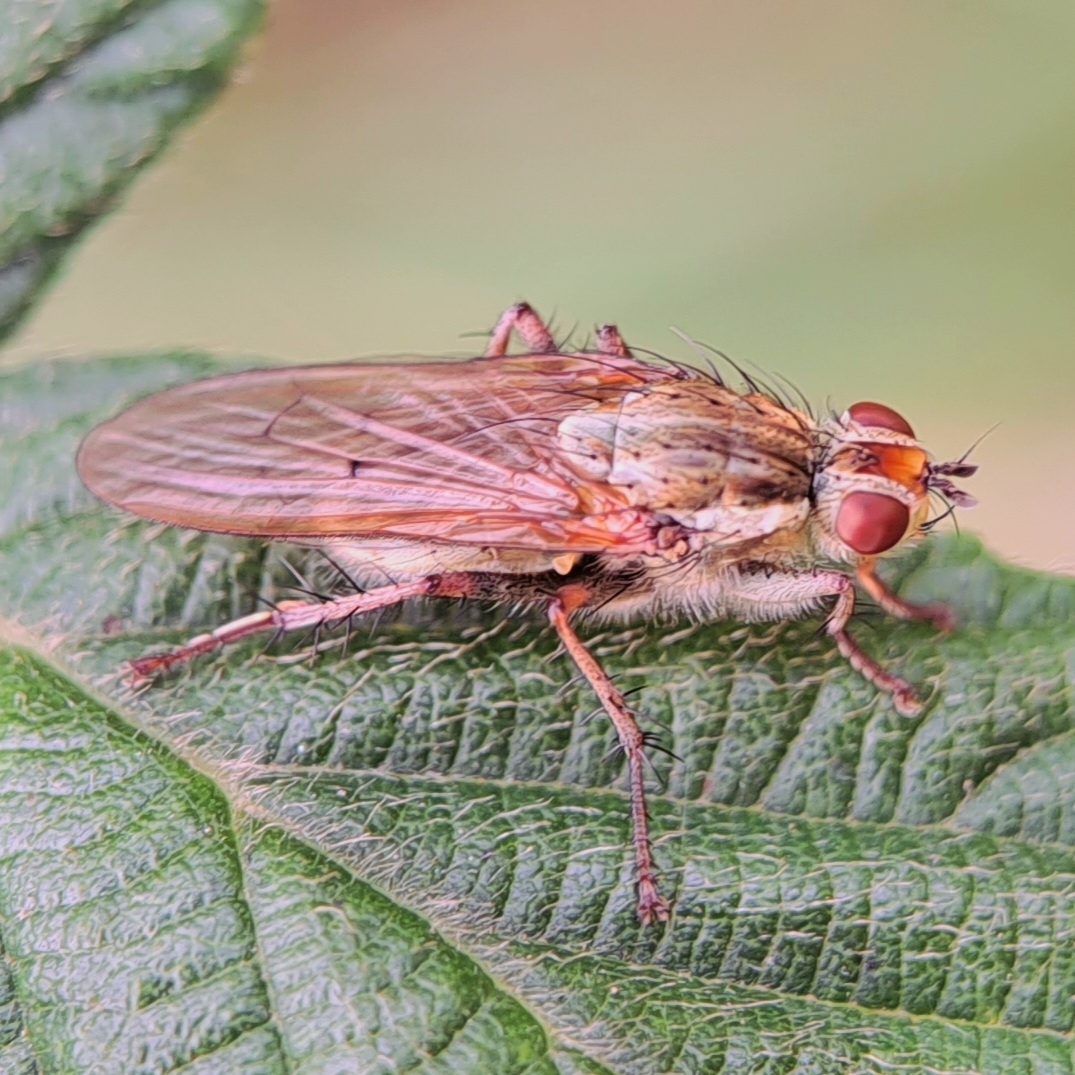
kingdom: Animalia
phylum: Arthropoda
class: Insecta
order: Diptera
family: Scathophagidae
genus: Scathophaga
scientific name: Scathophaga stercoraria
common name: Yellow dung fly
